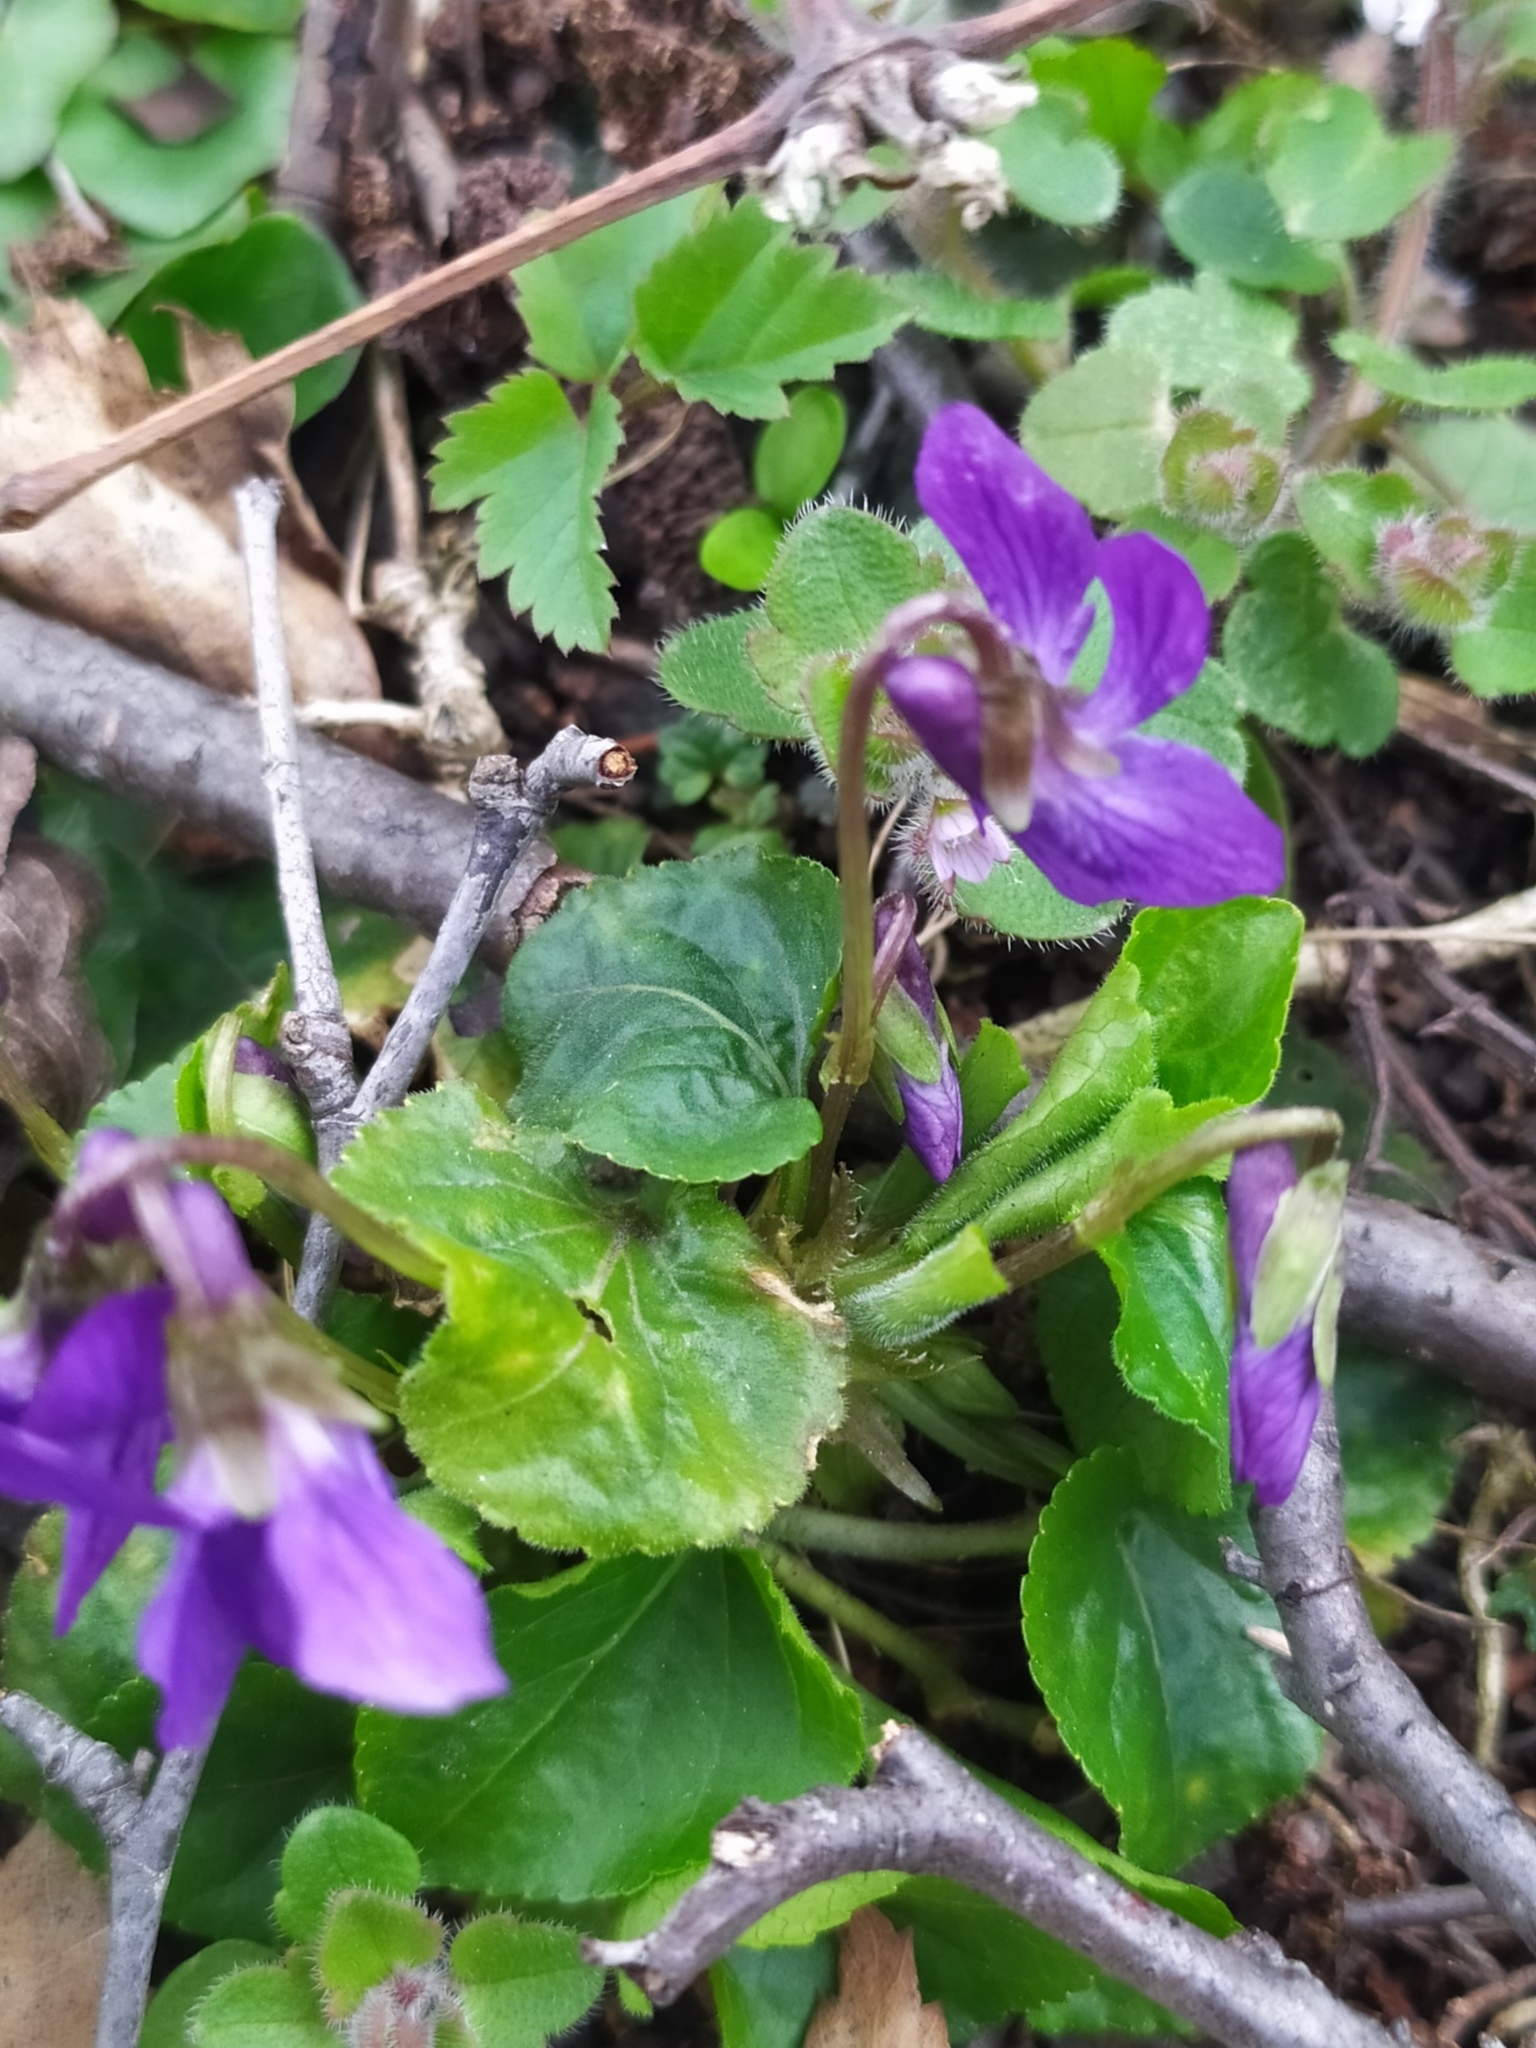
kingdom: Plantae
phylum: Tracheophyta
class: Magnoliopsida
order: Malpighiales
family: Violaceae
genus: Viola
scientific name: Viola odorata
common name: Sweet violet
